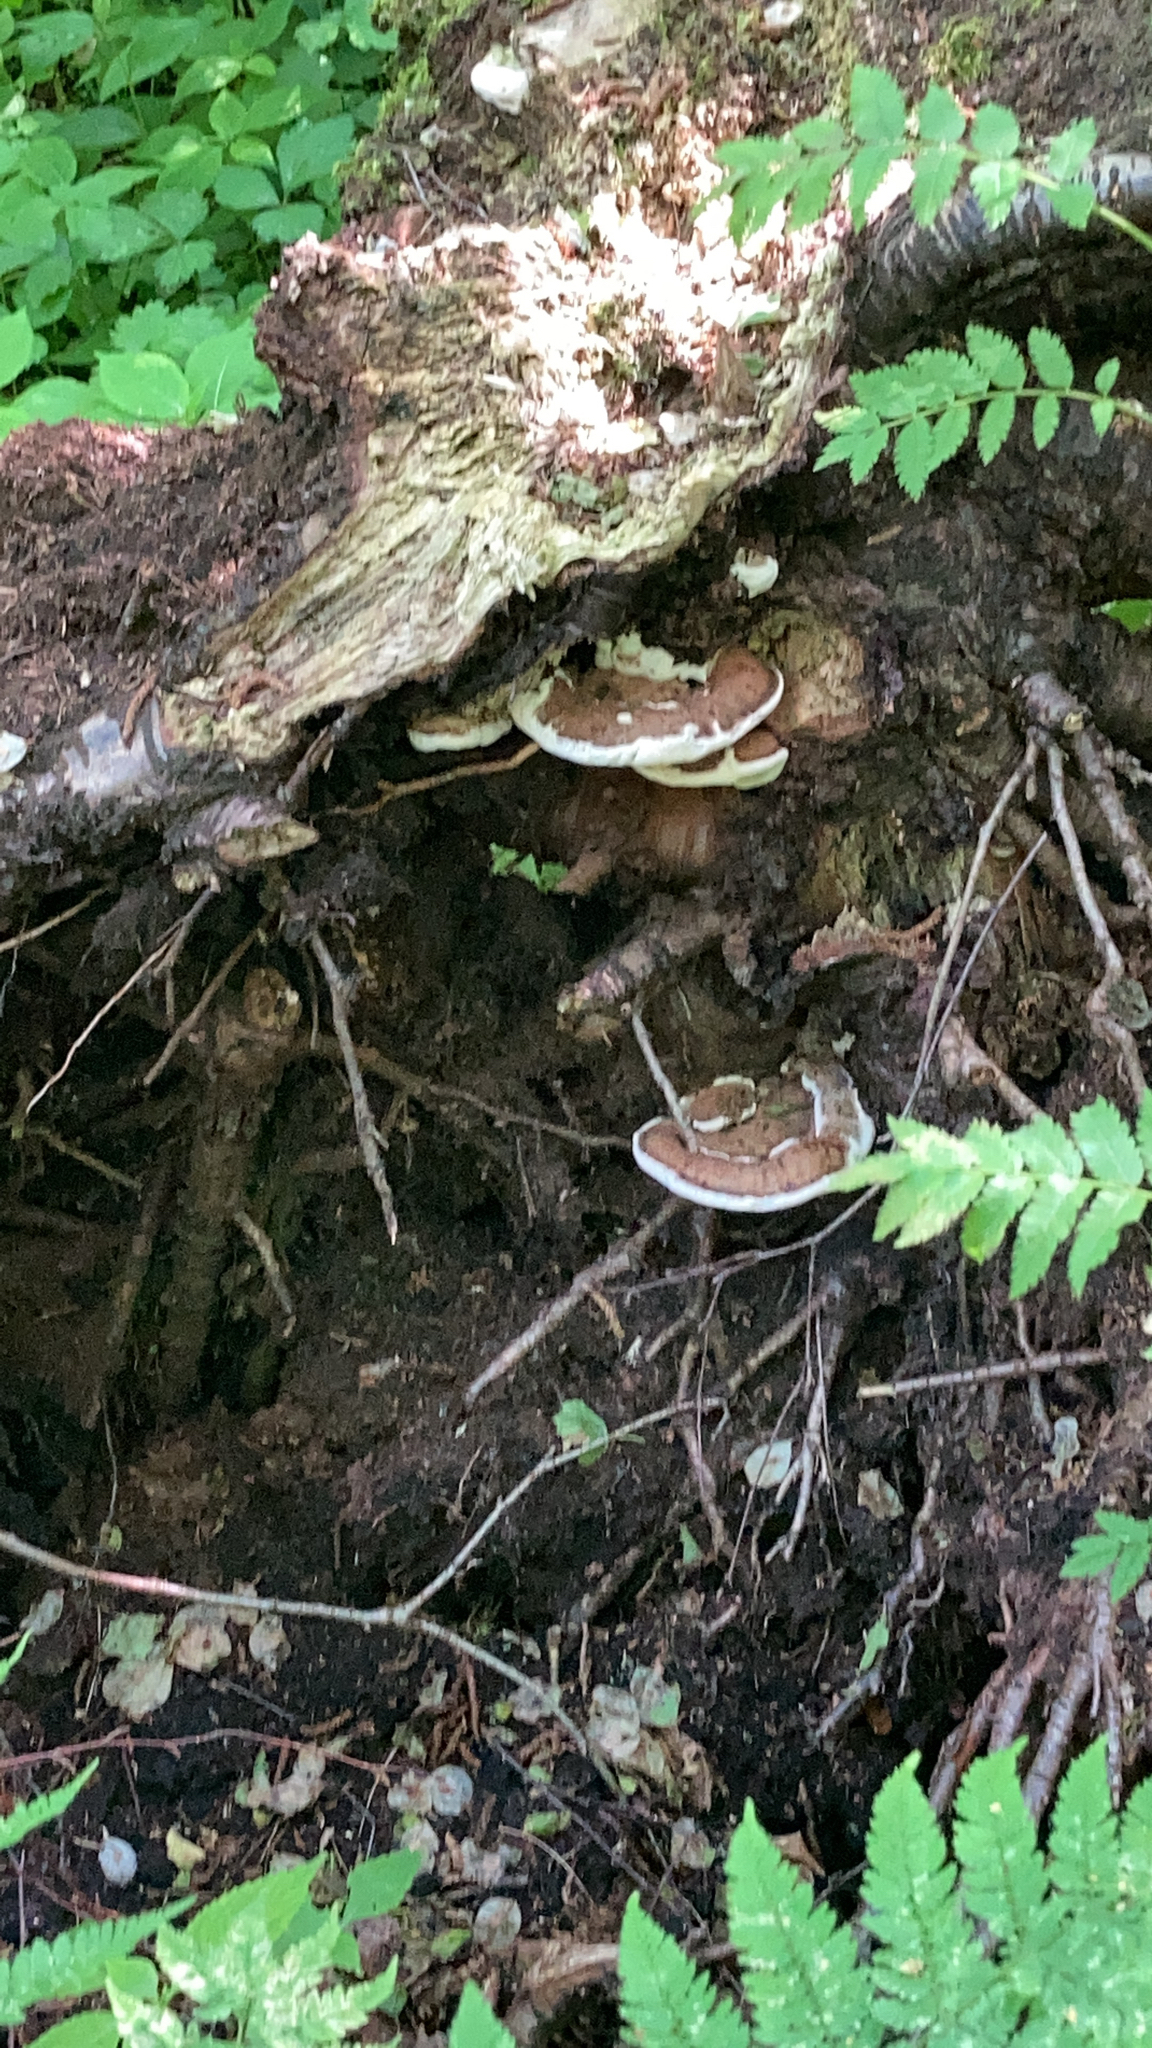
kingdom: Fungi
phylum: Basidiomycota
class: Agaricomycetes
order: Polyporales
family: Polyporaceae
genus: Ganoderma
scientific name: Ganoderma applanatum
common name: Artist's bracket
